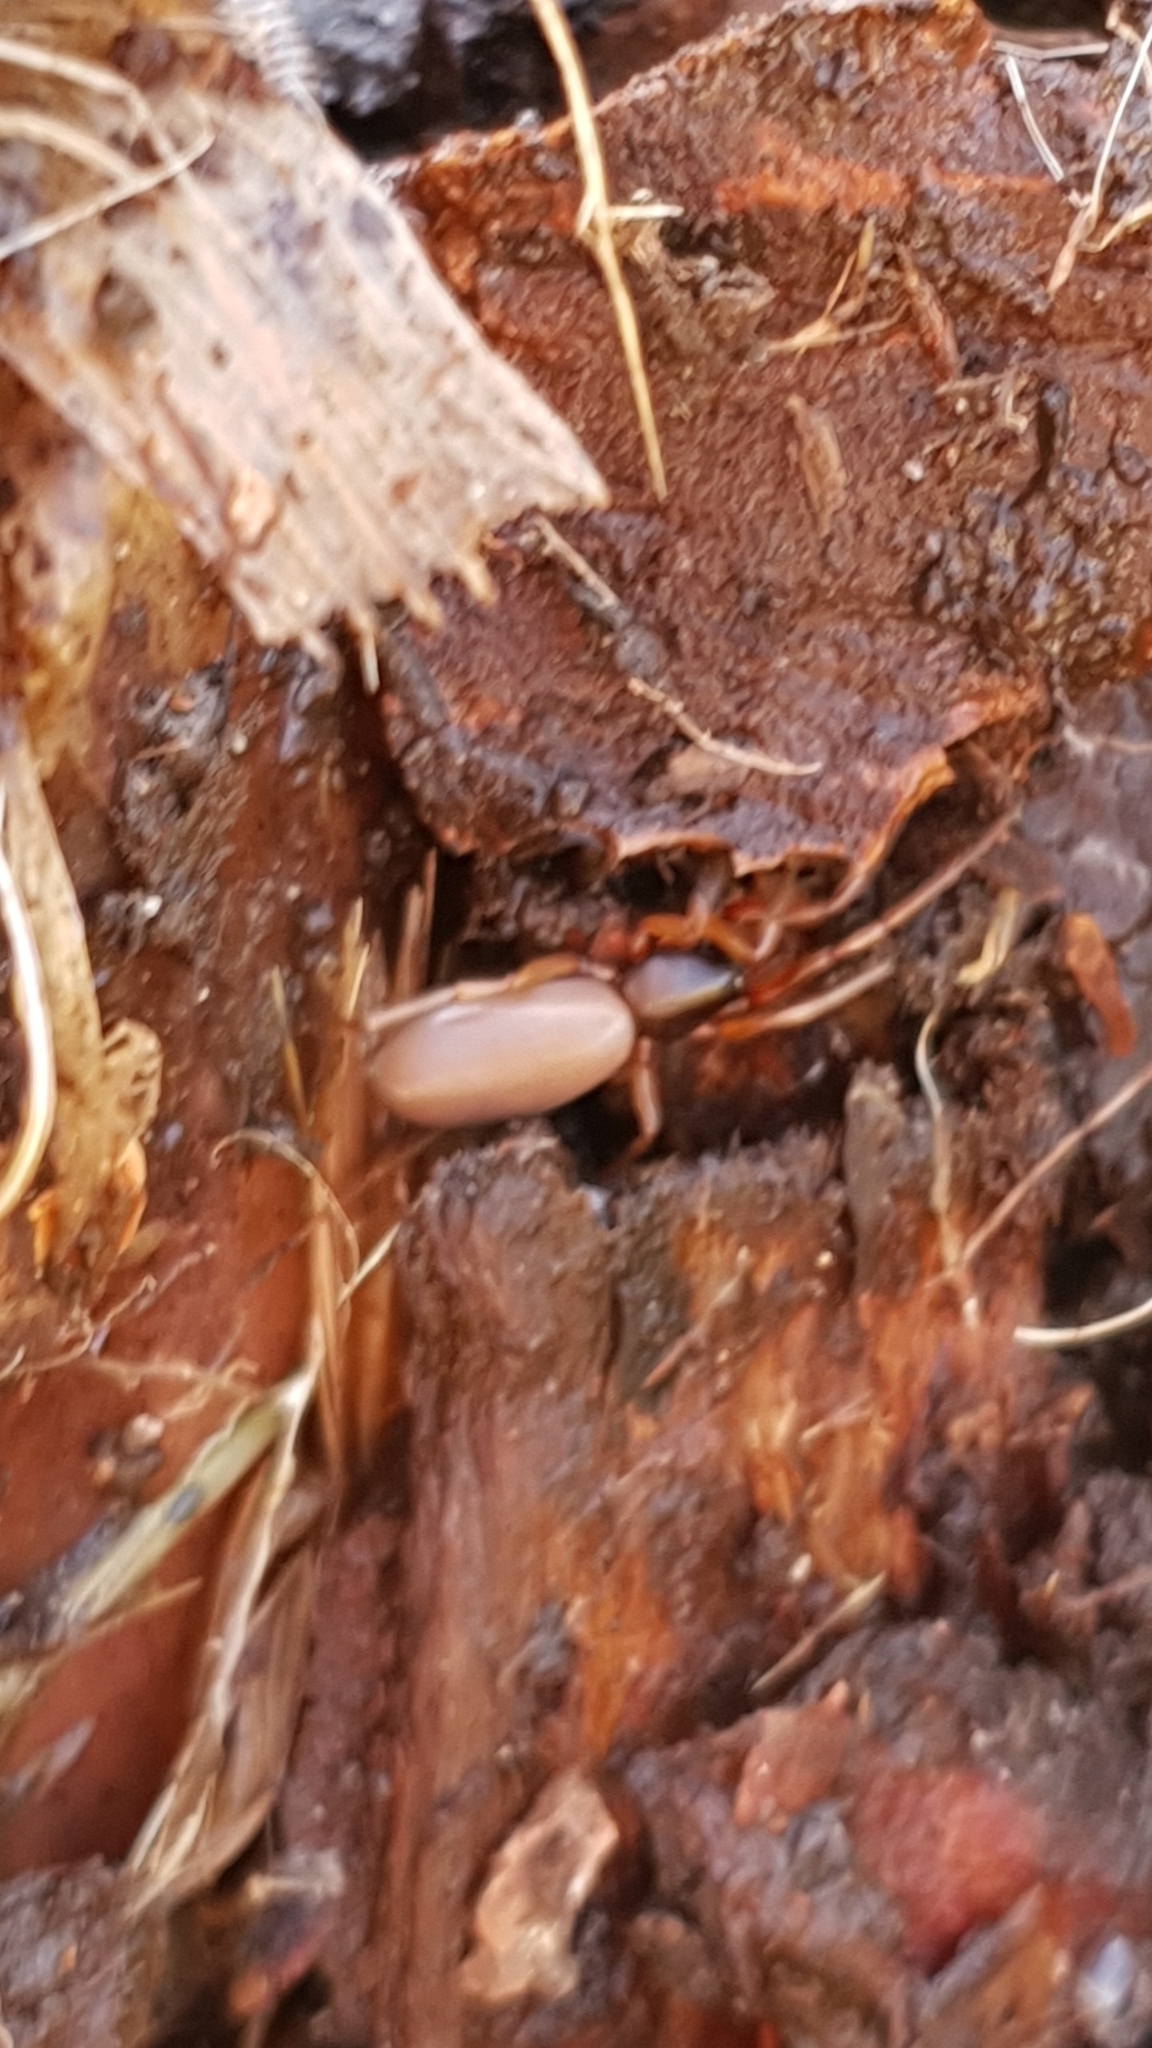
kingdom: Animalia
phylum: Arthropoda
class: Arachnida
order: Araneae
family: Dysderidae
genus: Dysdera
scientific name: Dysdera crocata
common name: Woodlouse spider
